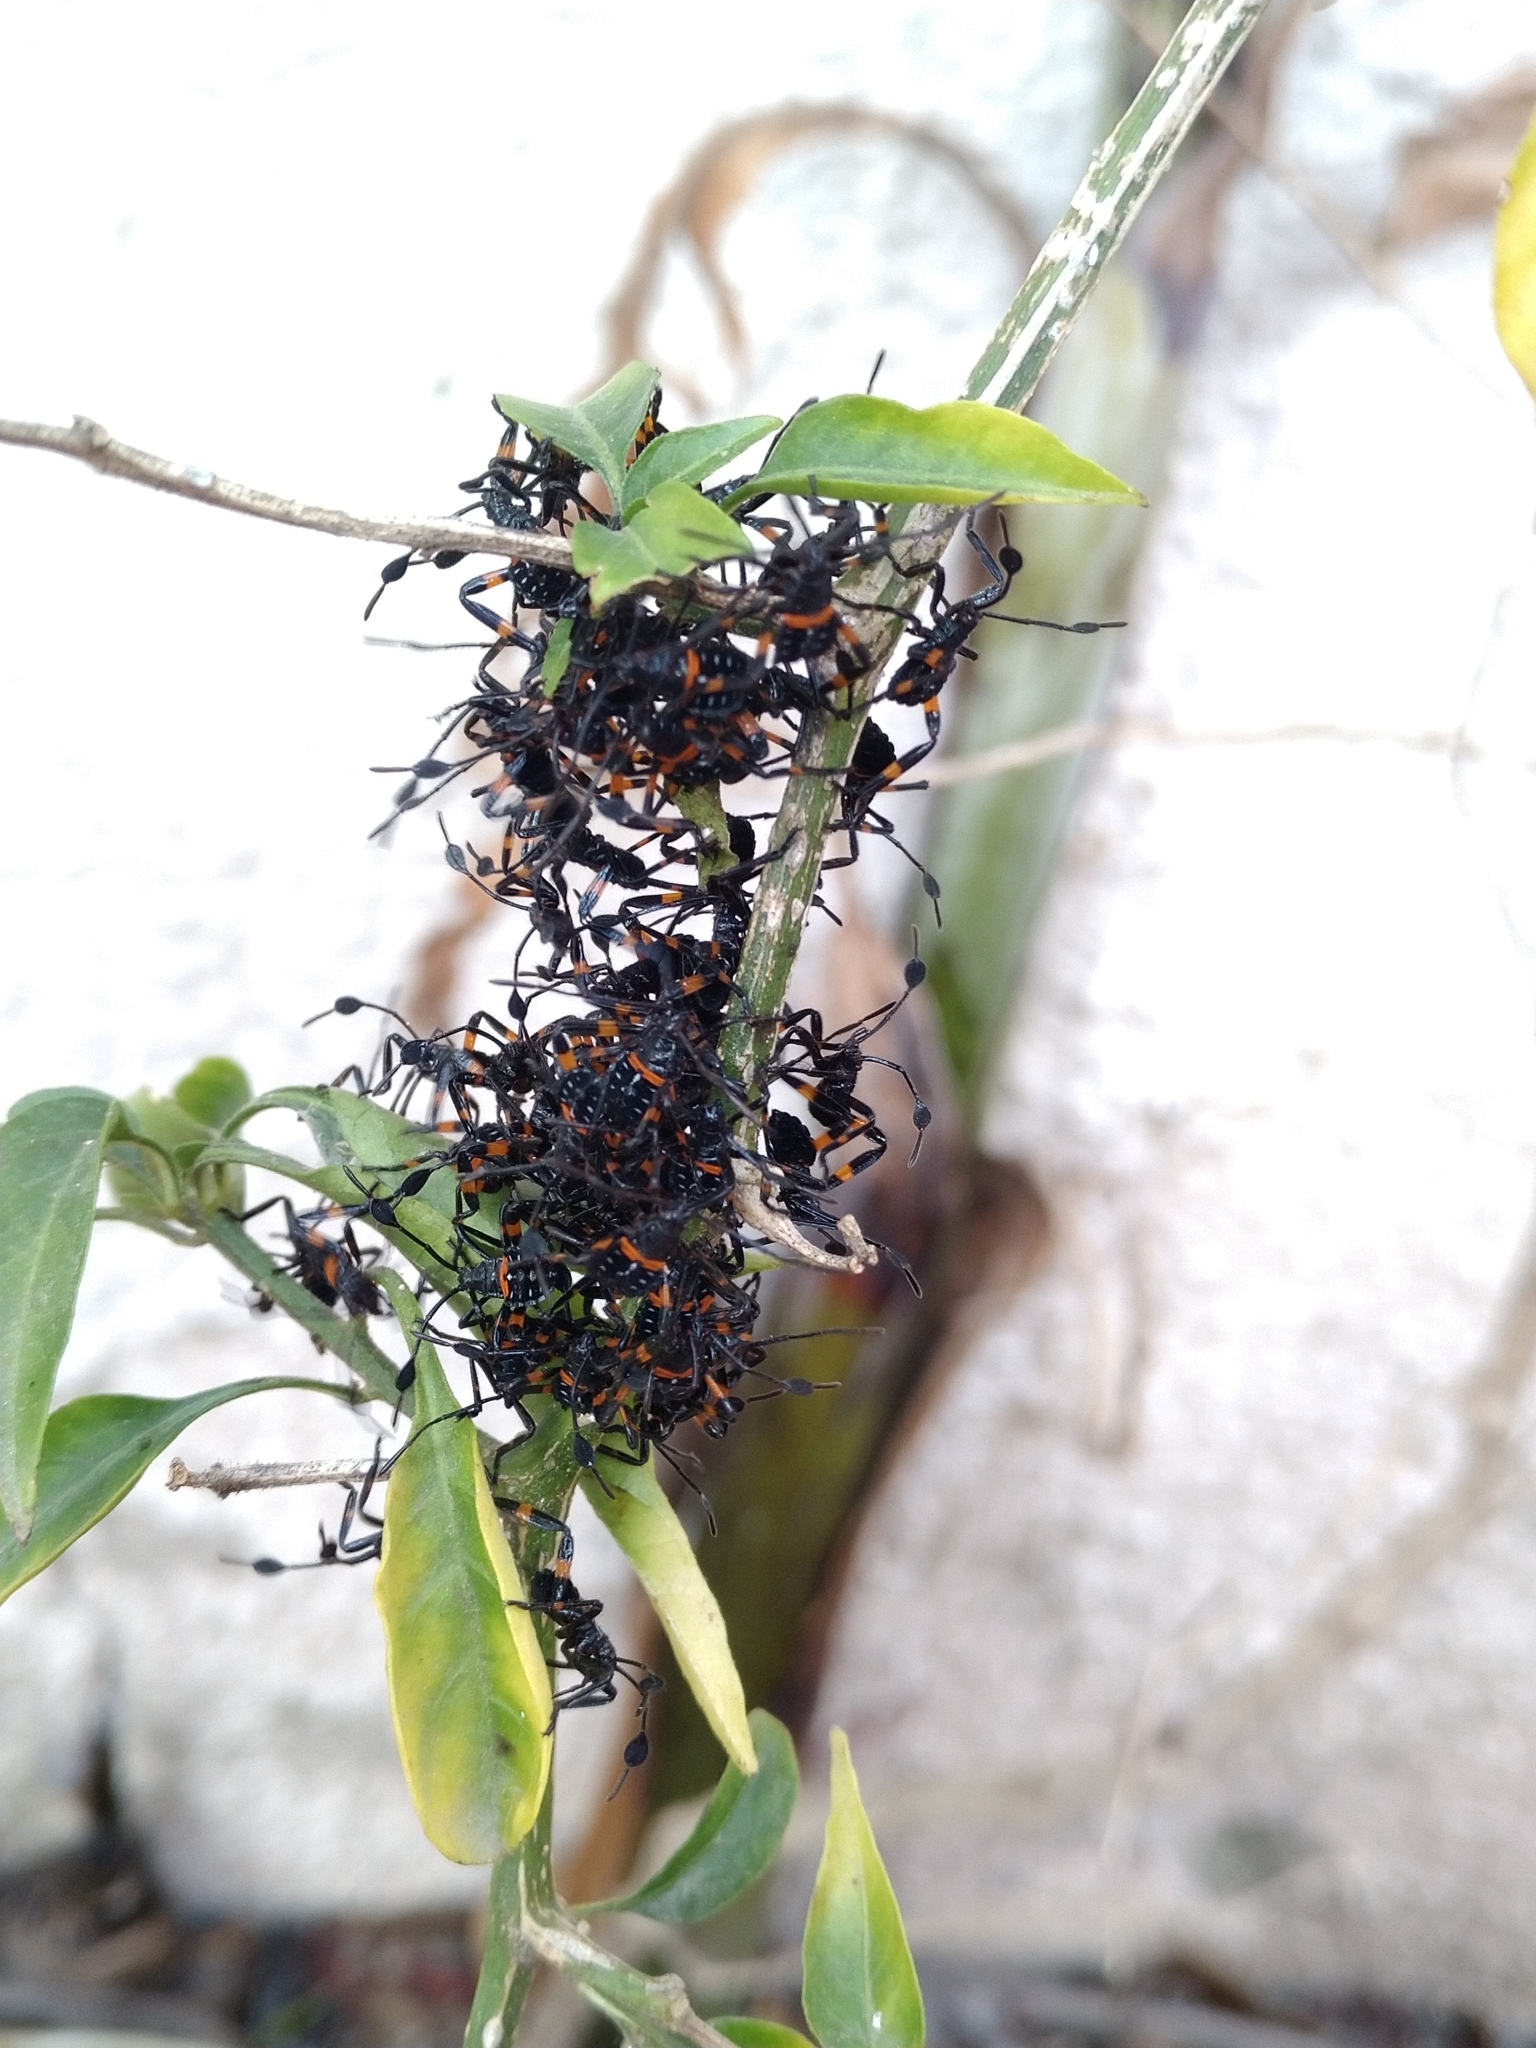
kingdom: Animalia
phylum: Arthropoda
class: Insecta
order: Hemiptera
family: Coreidae
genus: Thasus
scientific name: Thasus
